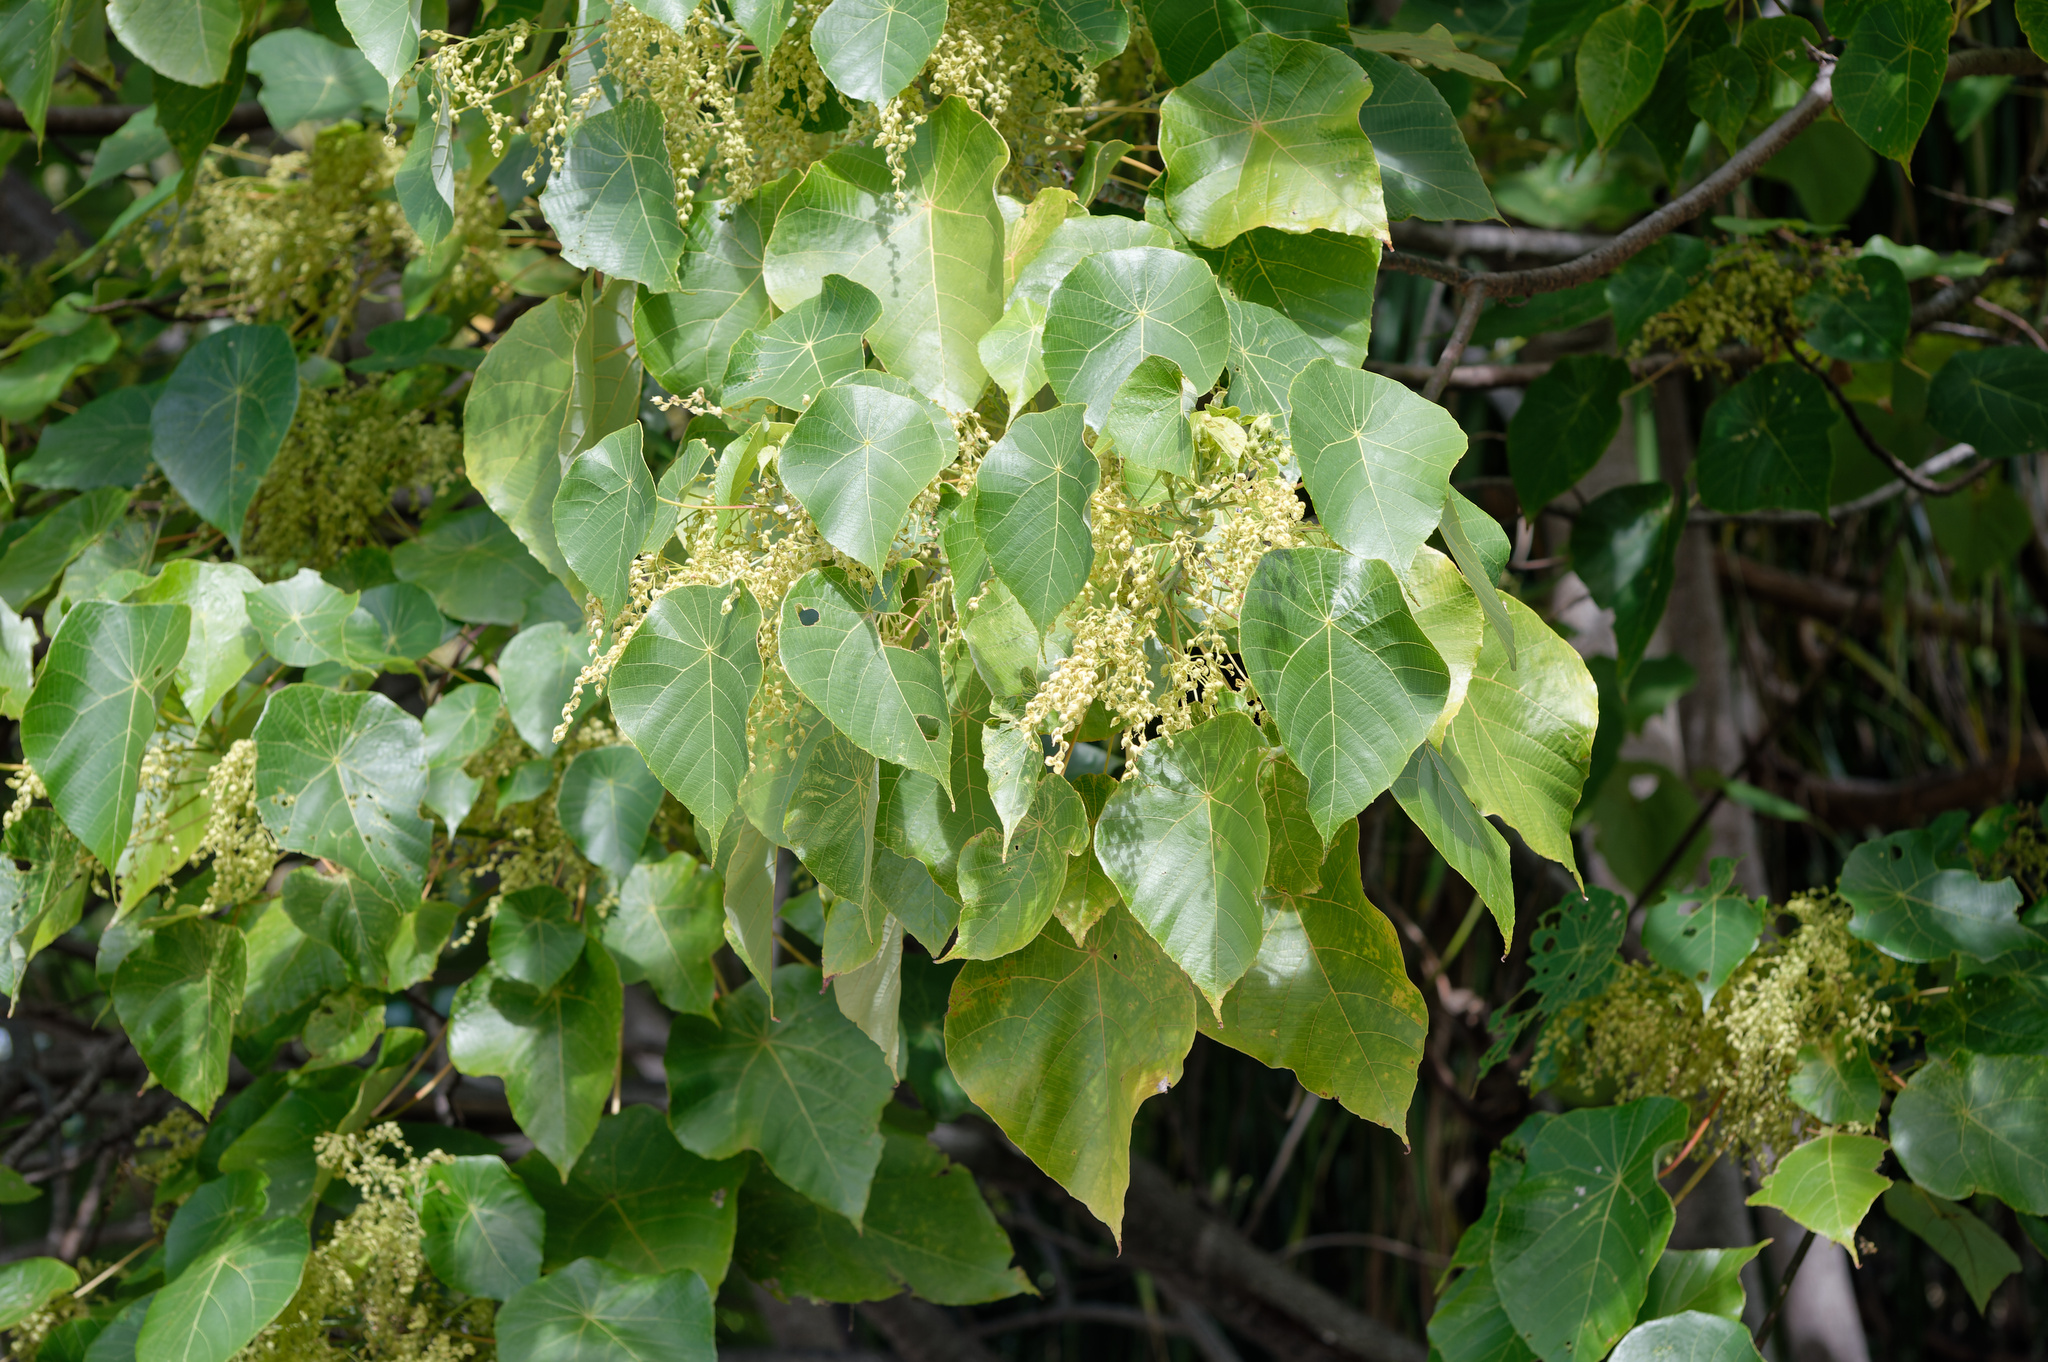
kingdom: Plantae
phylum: Tracheophyta
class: Magnoliopsida
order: Malpighiales
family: Euphorbiaceae
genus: Macaranga
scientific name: Macaranga tanarius
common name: Parasol leaf tree
